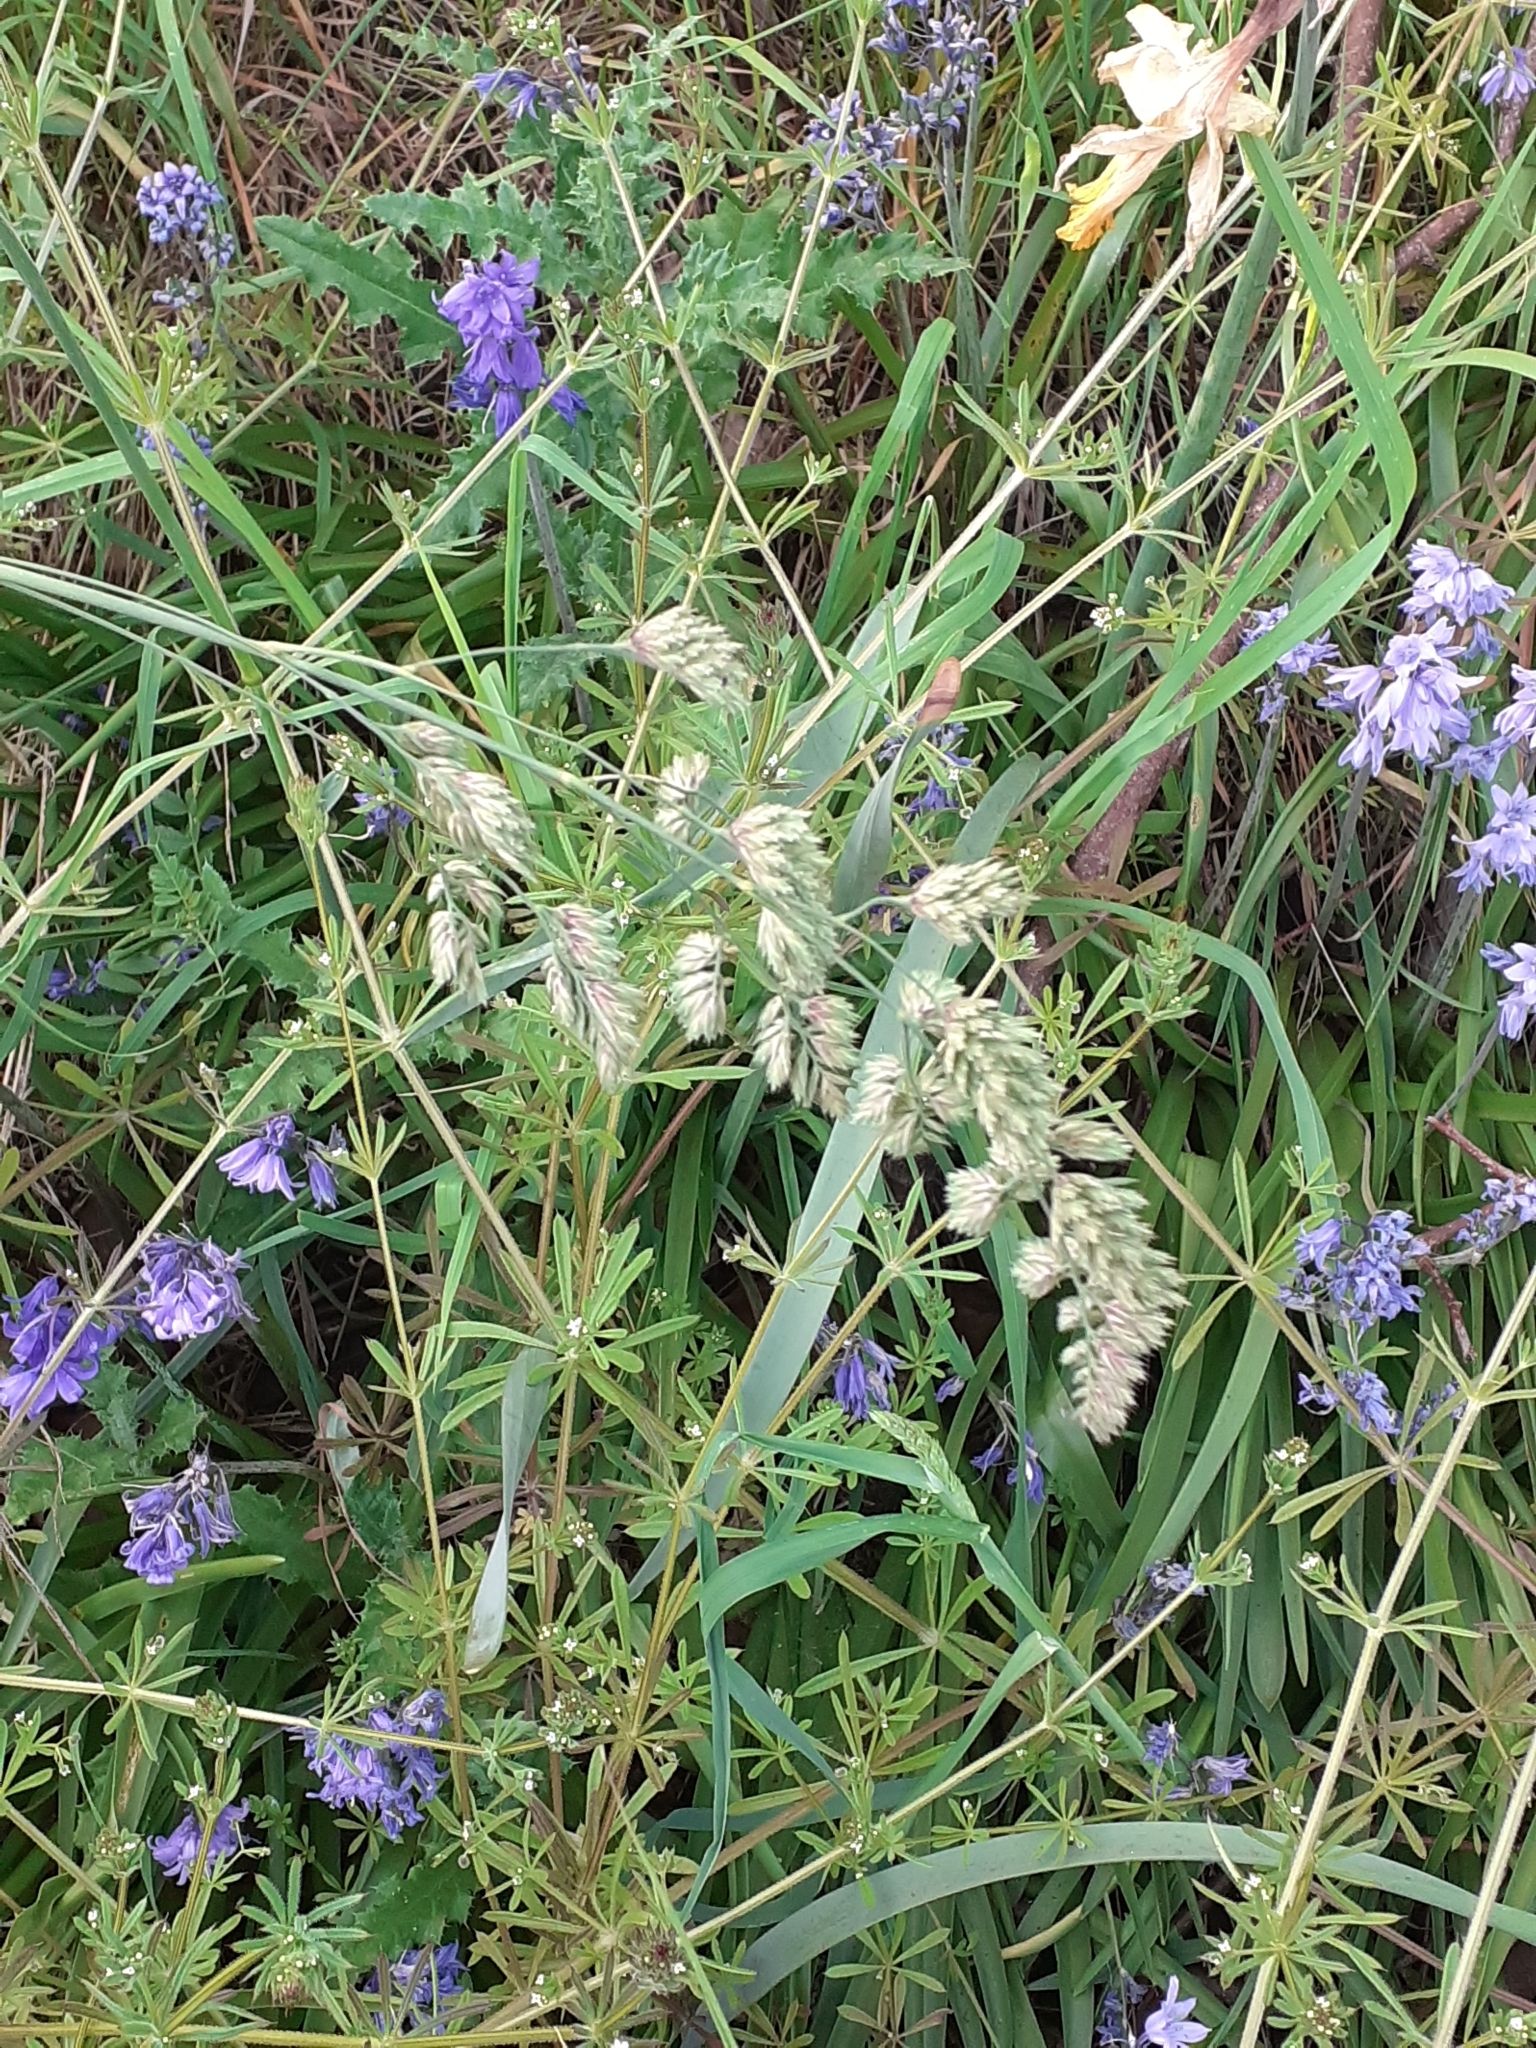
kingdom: Plantae
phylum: Tracheophyta
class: Liliopsida
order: Poales
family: Poaceae
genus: Dactylis
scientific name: Dactylis glomerata
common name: Orchardgrass
